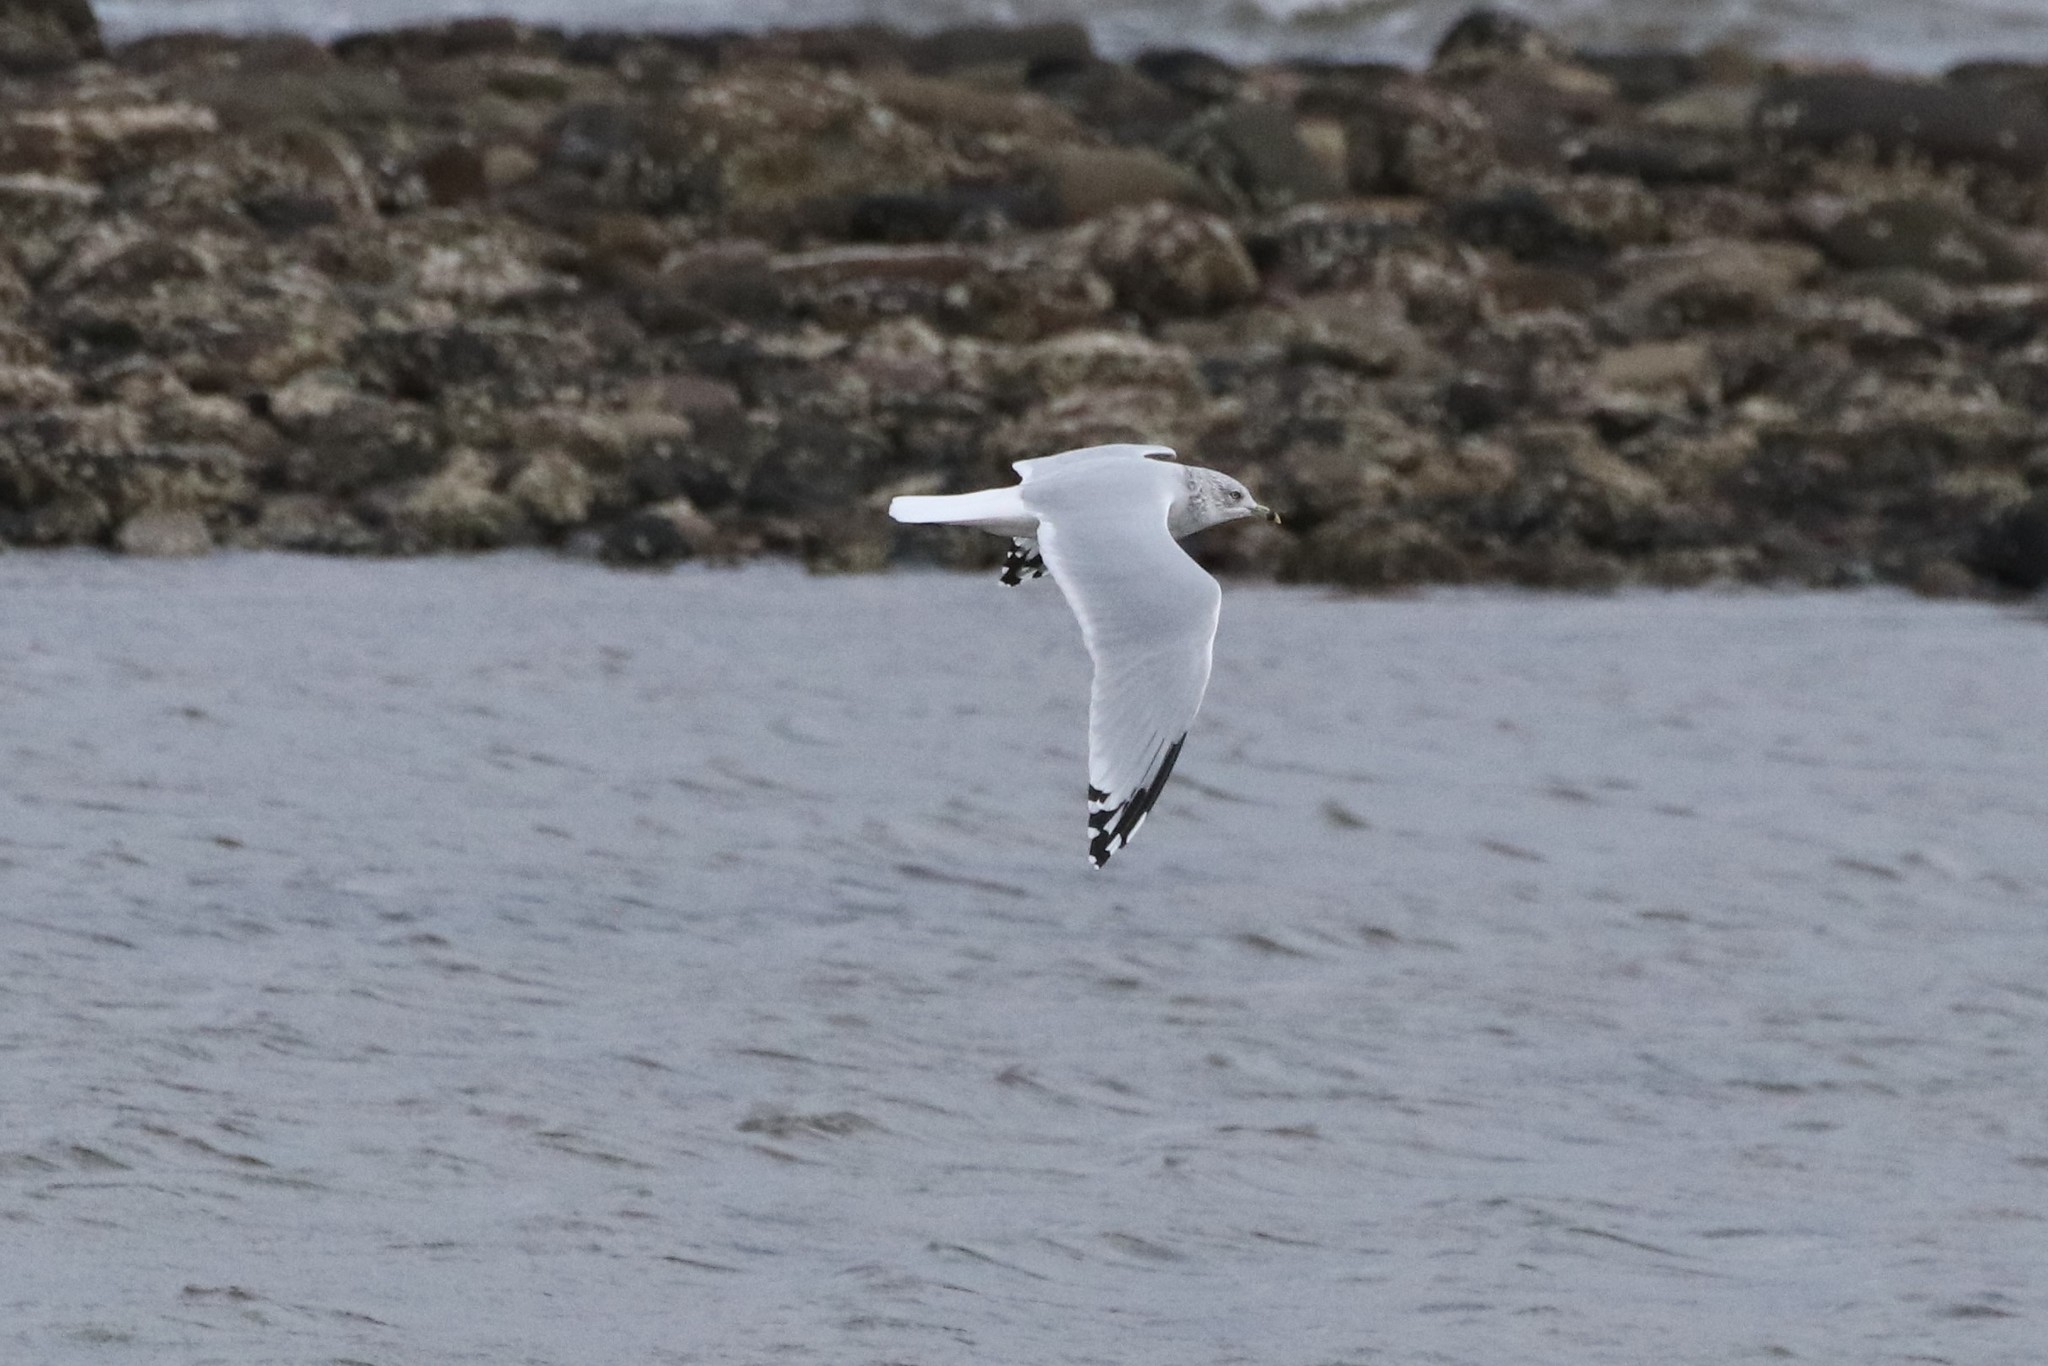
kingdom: Animalia
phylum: Chordata
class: Aves
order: Charadriiformes
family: Laridae
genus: Larus
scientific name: Larus delawarensis
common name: Ring-billed gull
